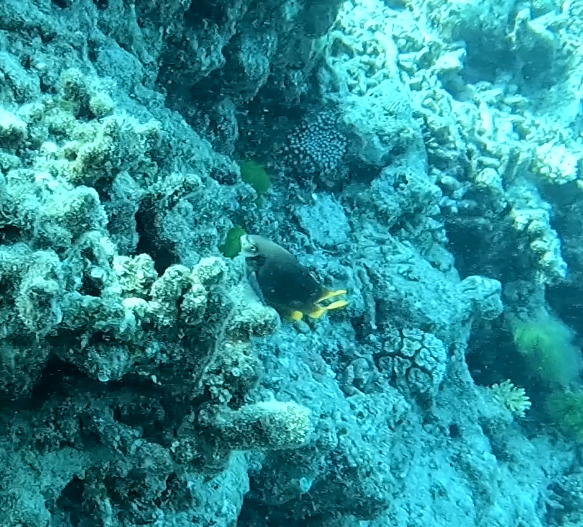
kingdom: Animalia
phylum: Chordata
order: Perciformes
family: Pomacentridae
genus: Neoglyphidodon
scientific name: Neoglyphidodon nigroris
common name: Behn's damsel
